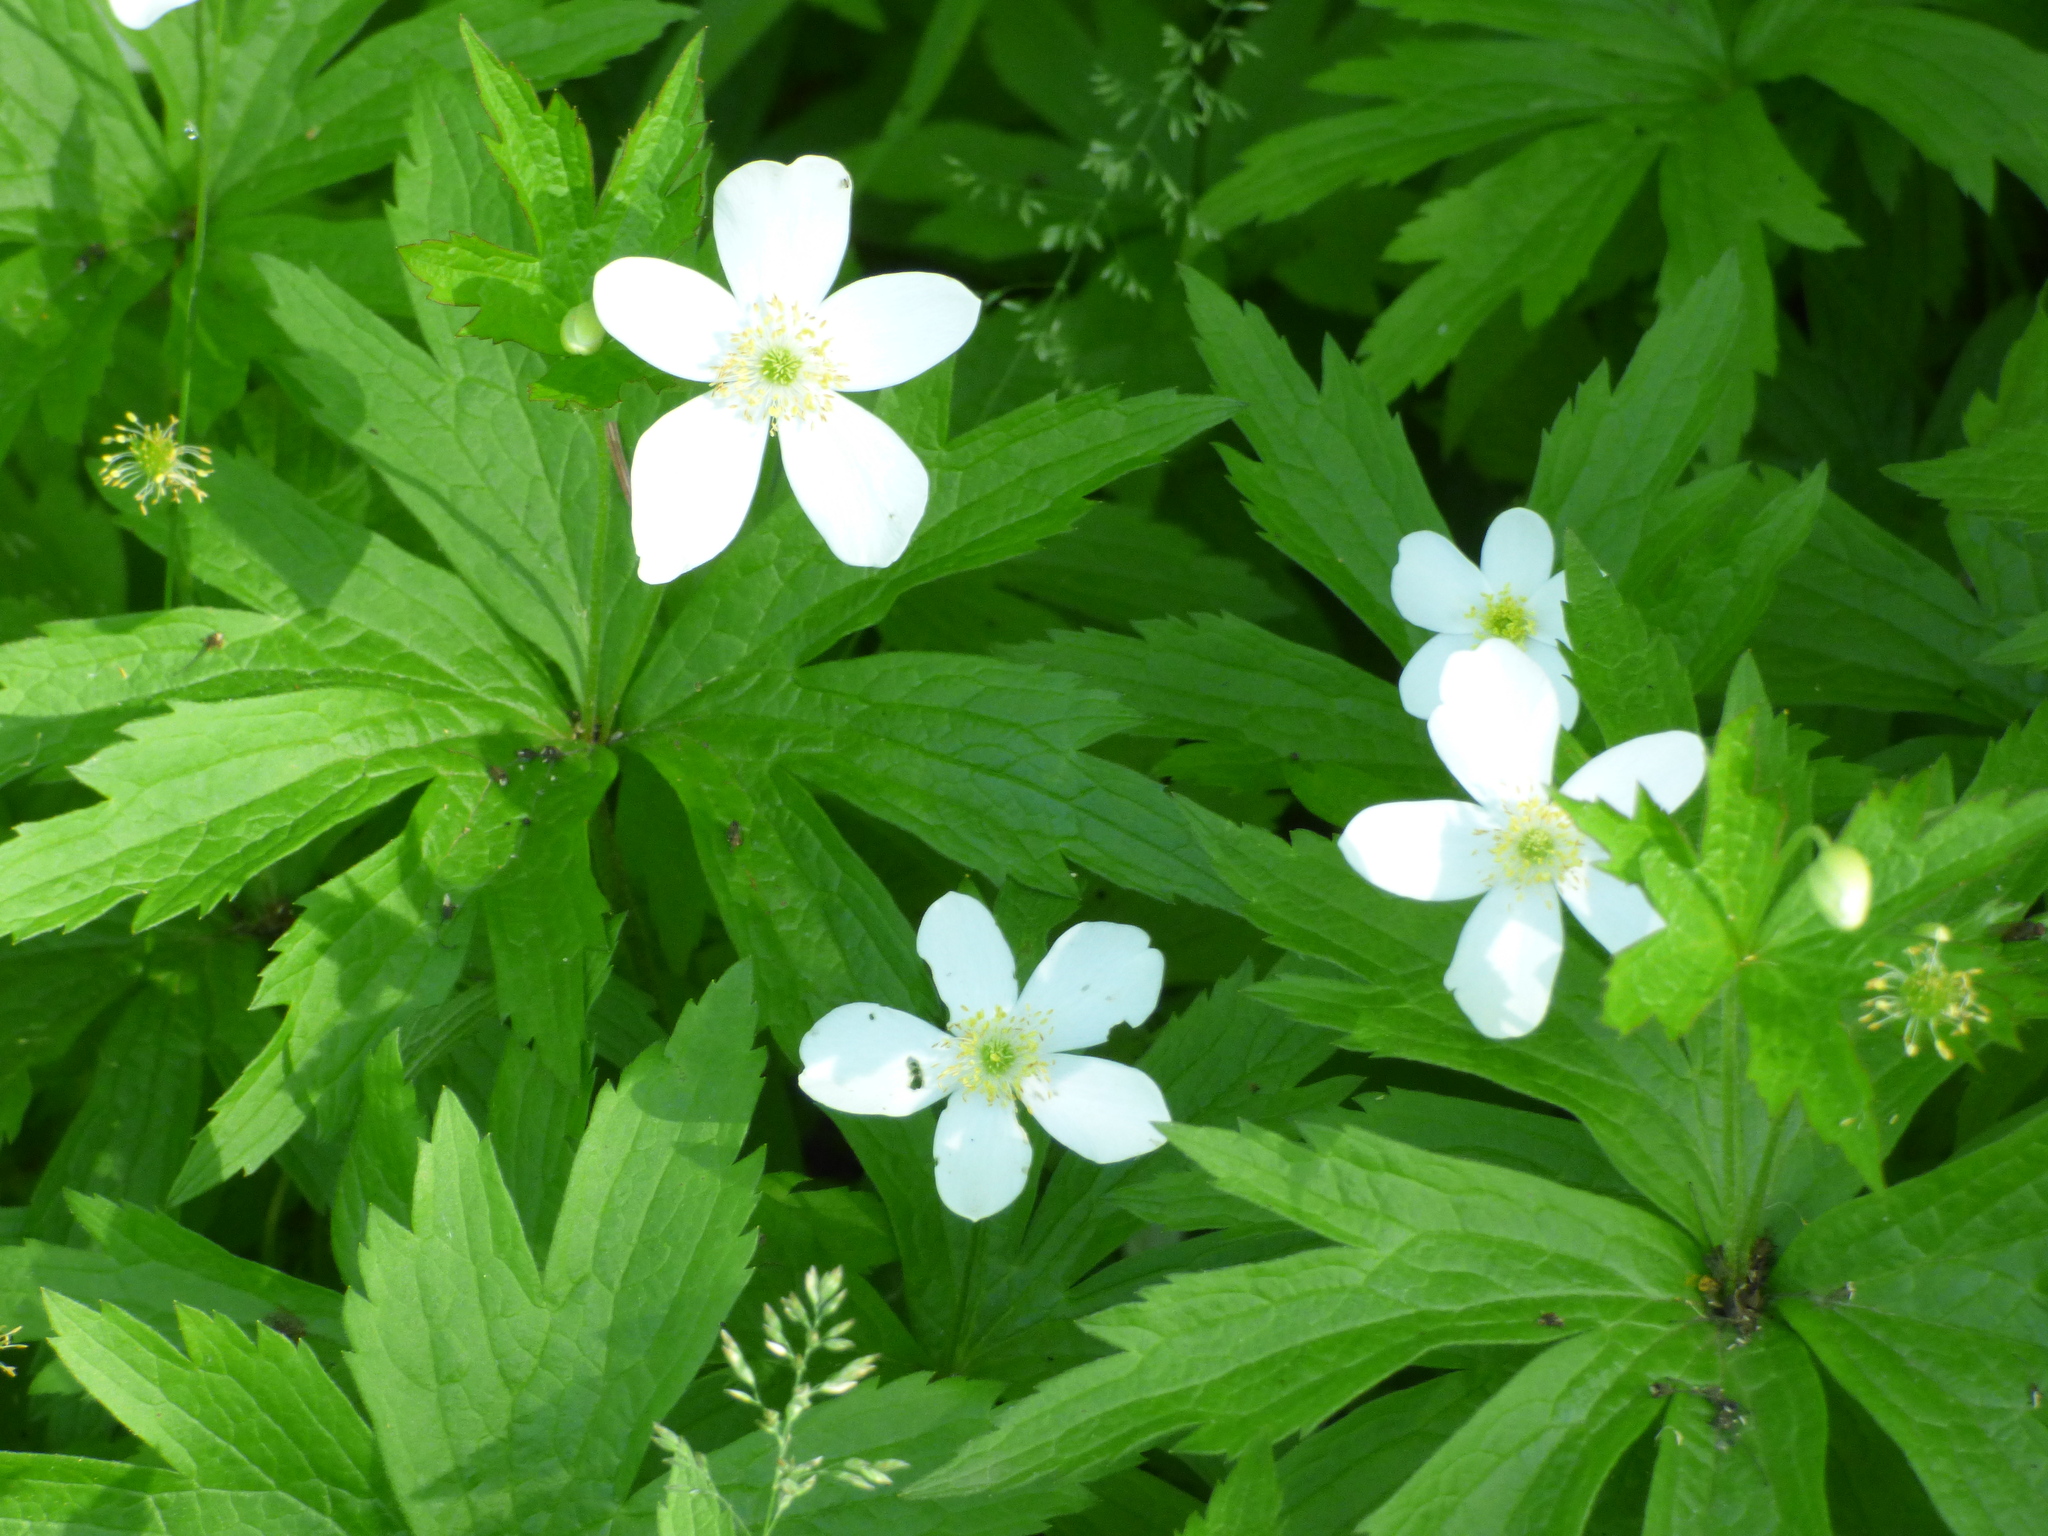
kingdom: Plantae
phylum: Tracheophyta
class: Magnoliopsida
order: Ranunculales
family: Ranunculaceae
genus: Anemonastrum
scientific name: Anemonastrum canadense
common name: Canada anemone
